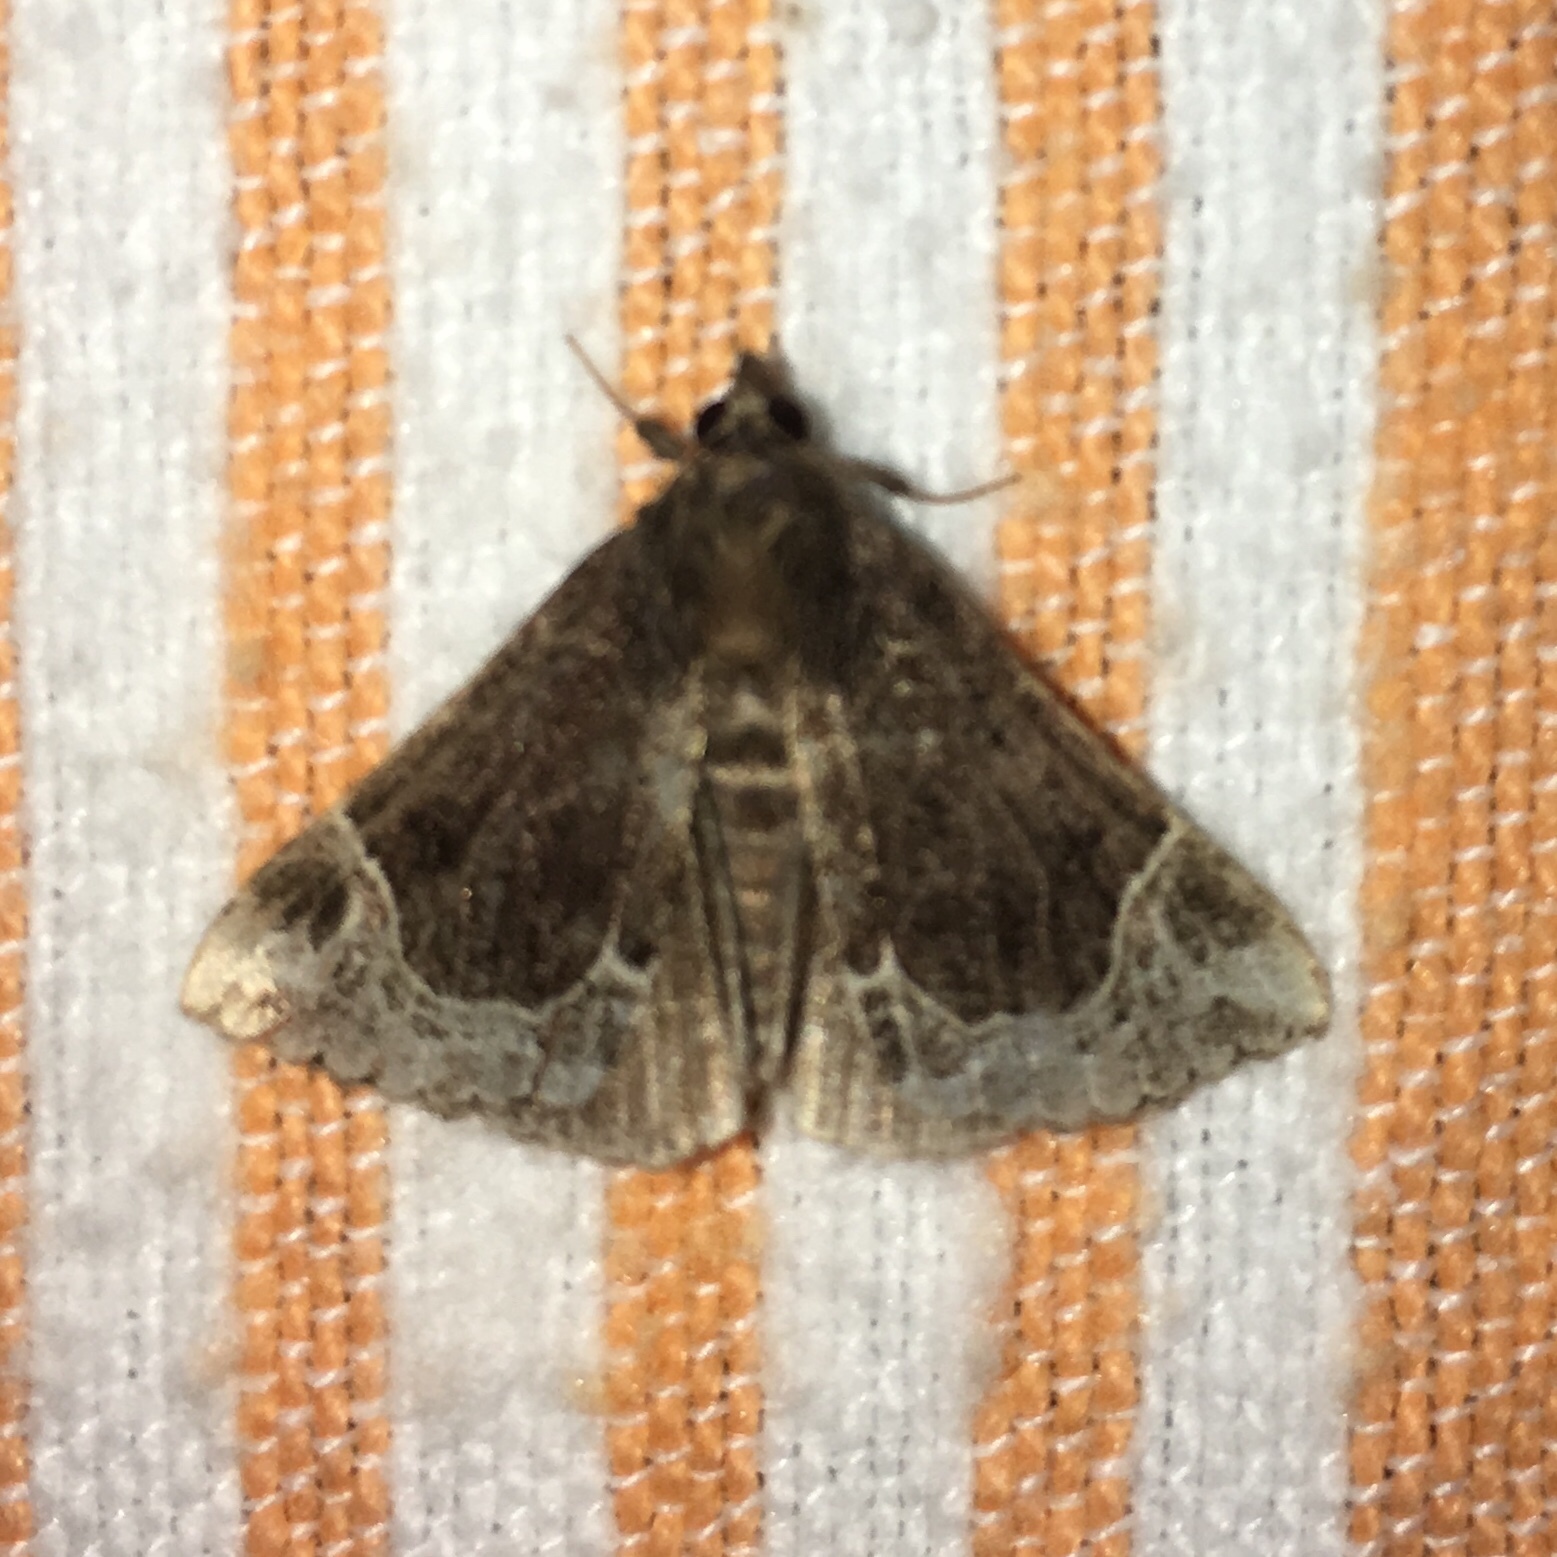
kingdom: Animalia
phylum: Arthropoda
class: Insecta
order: Lepidoptera
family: Erebidae
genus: Hypena
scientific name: Hypena abalienalis
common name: White-lined snout
